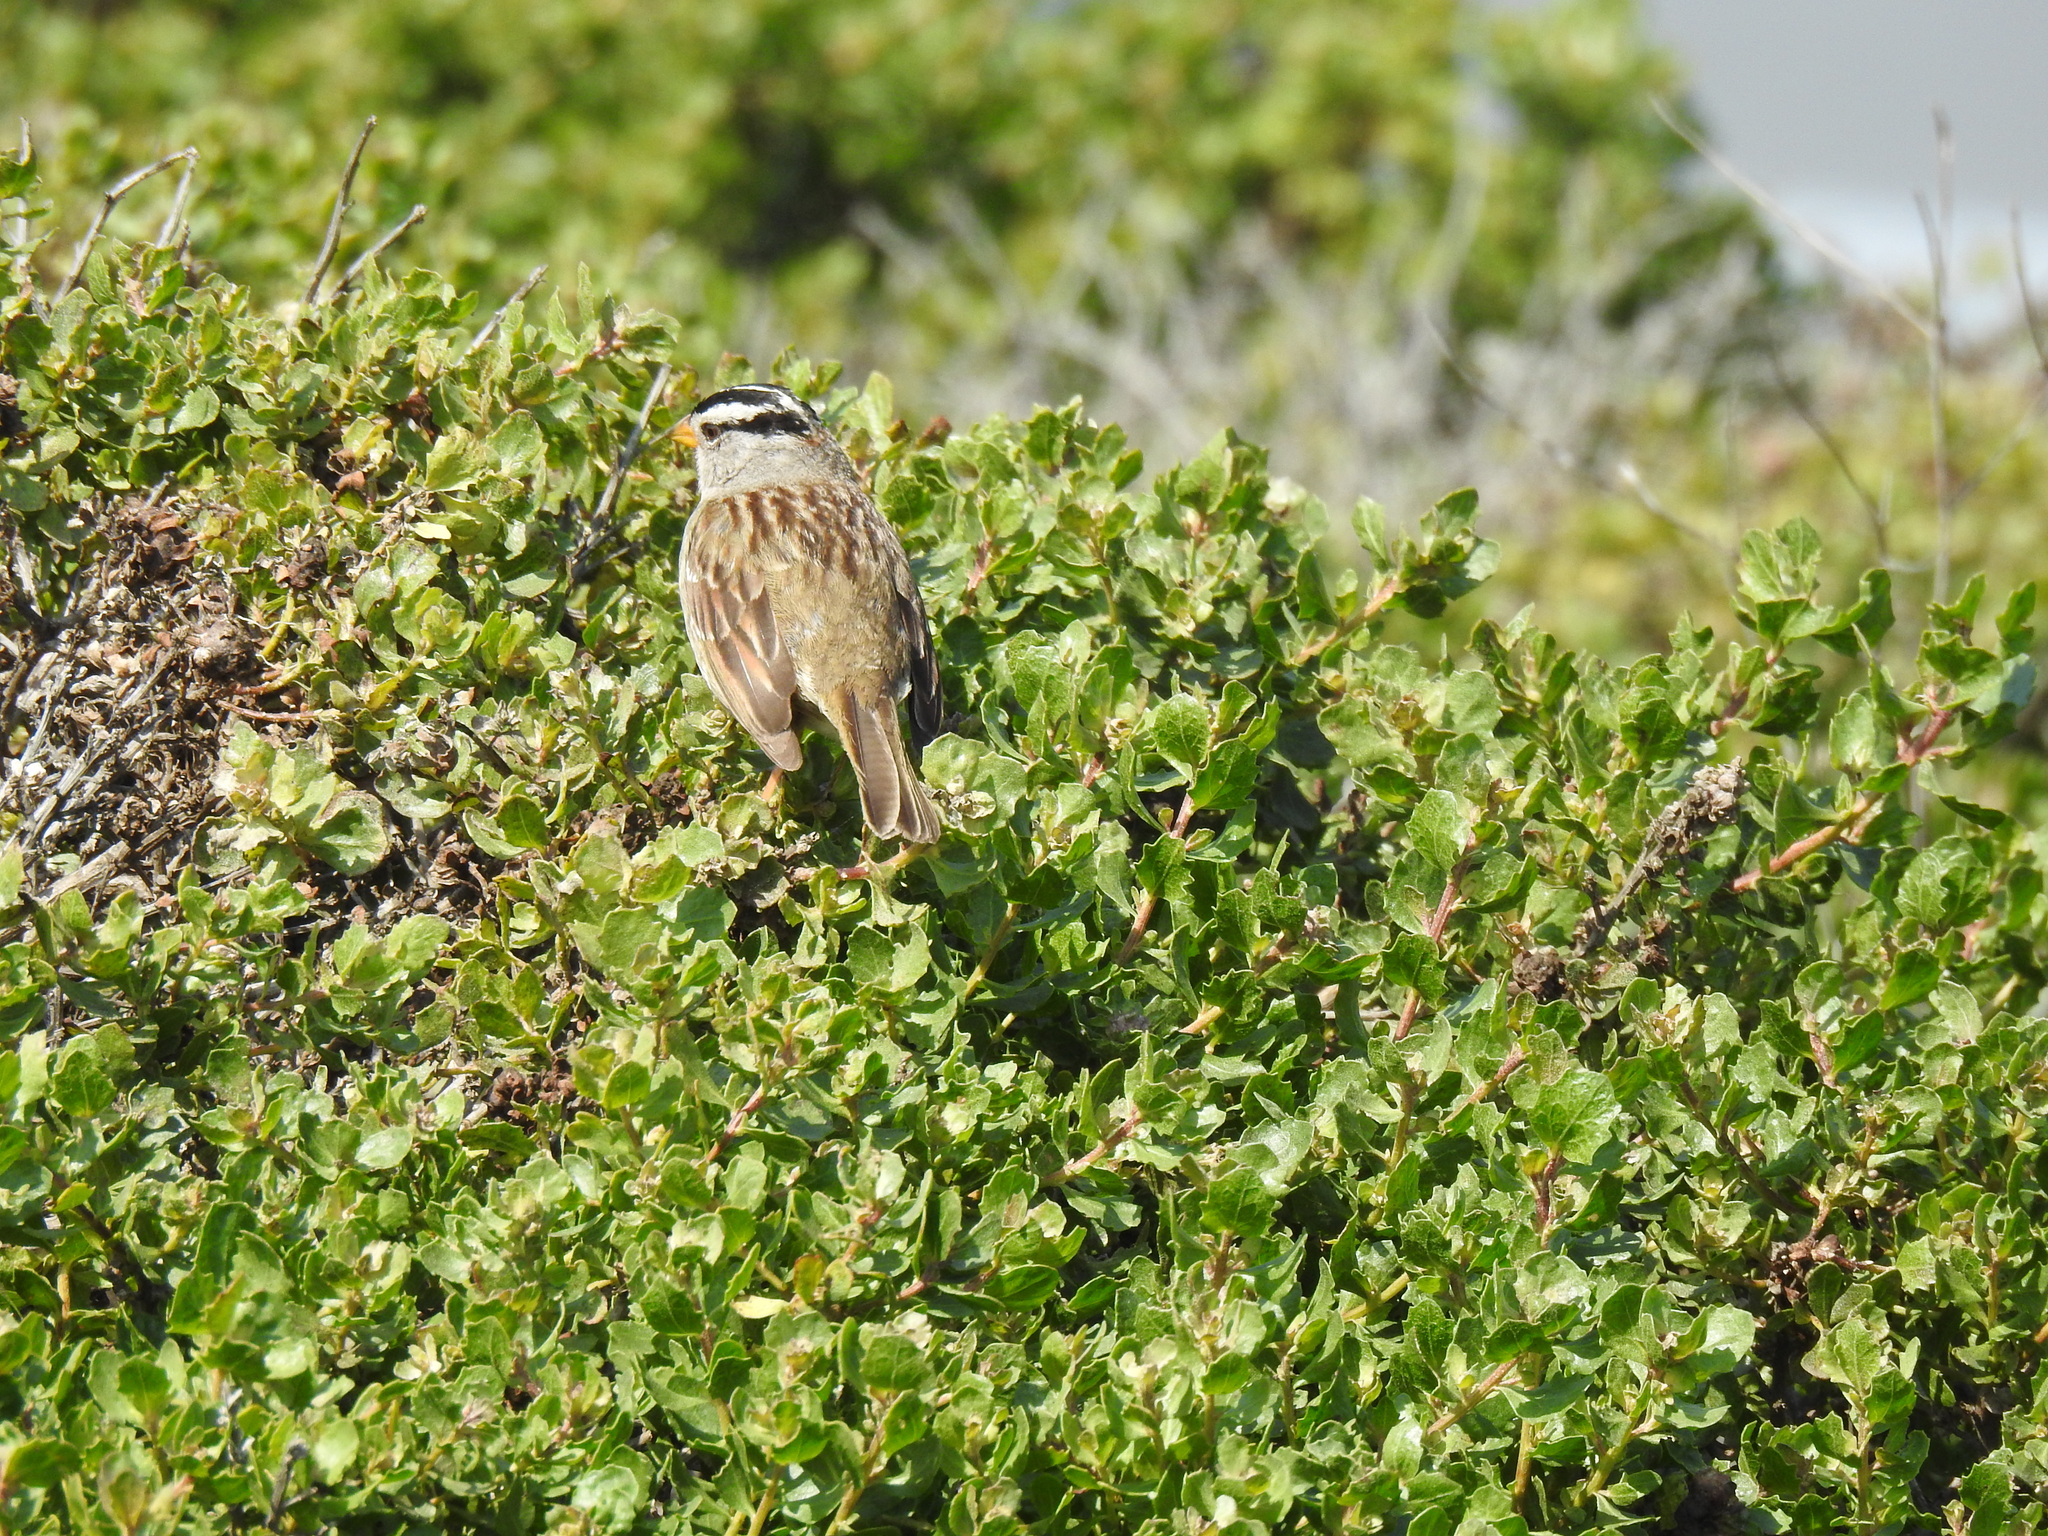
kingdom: Animalia
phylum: Chordata
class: Aves
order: Passeriformes
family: Passerellidae
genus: Zonotrichia
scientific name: Zonotrichia leucophrys
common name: White-crowned sparrow
